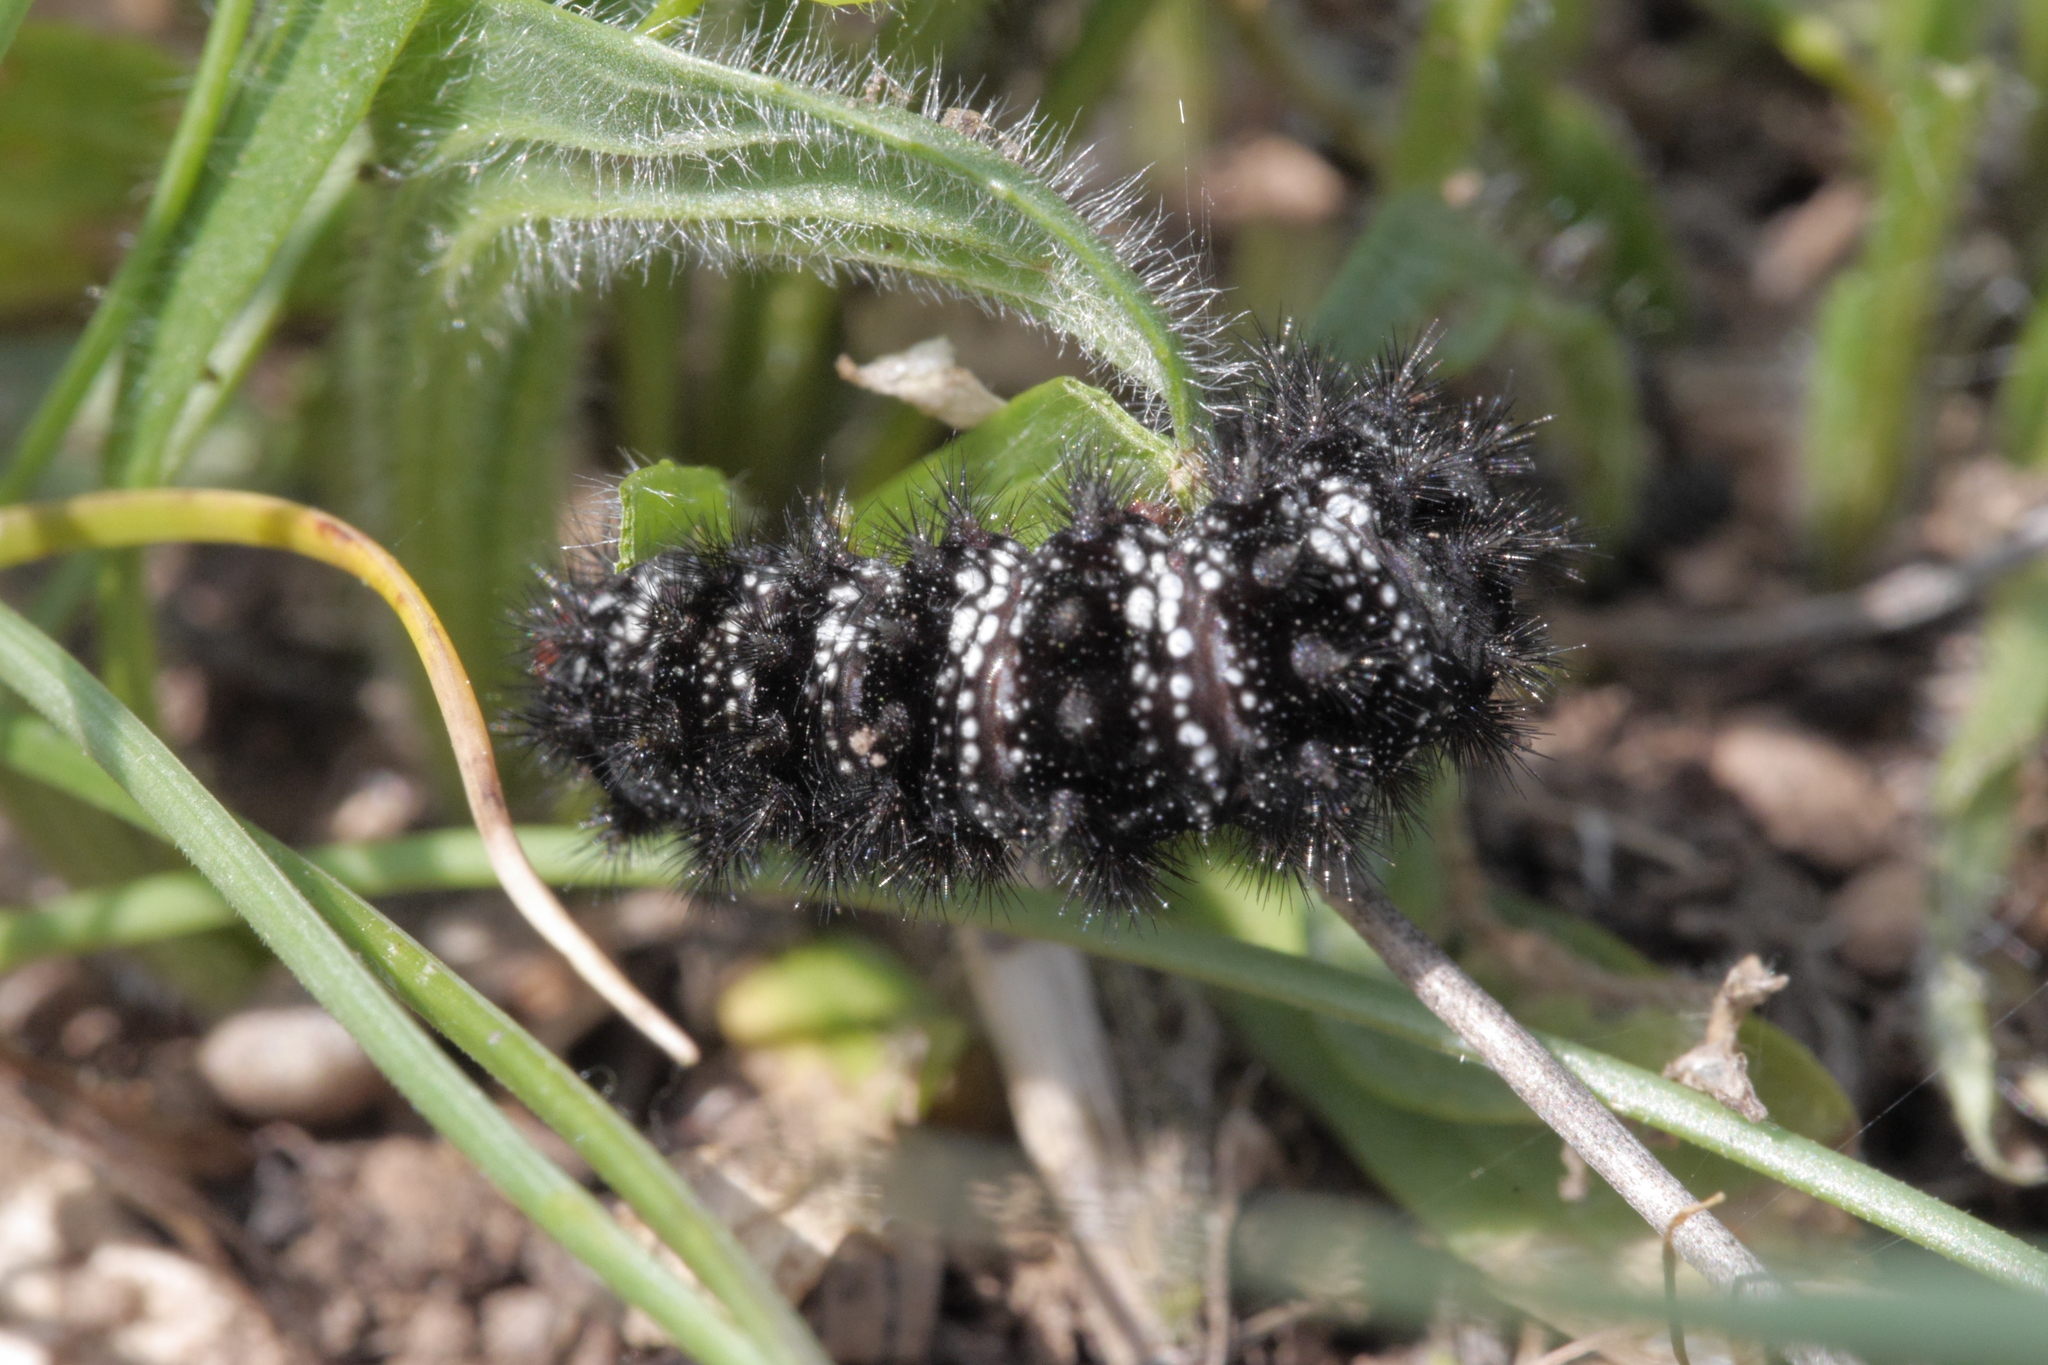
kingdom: Animalia
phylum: Arthropoda
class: Insecta
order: Lepidoptera
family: Nymphalidae
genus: Melitaea
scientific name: Melitaea cinxia
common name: Glanville fritillary
